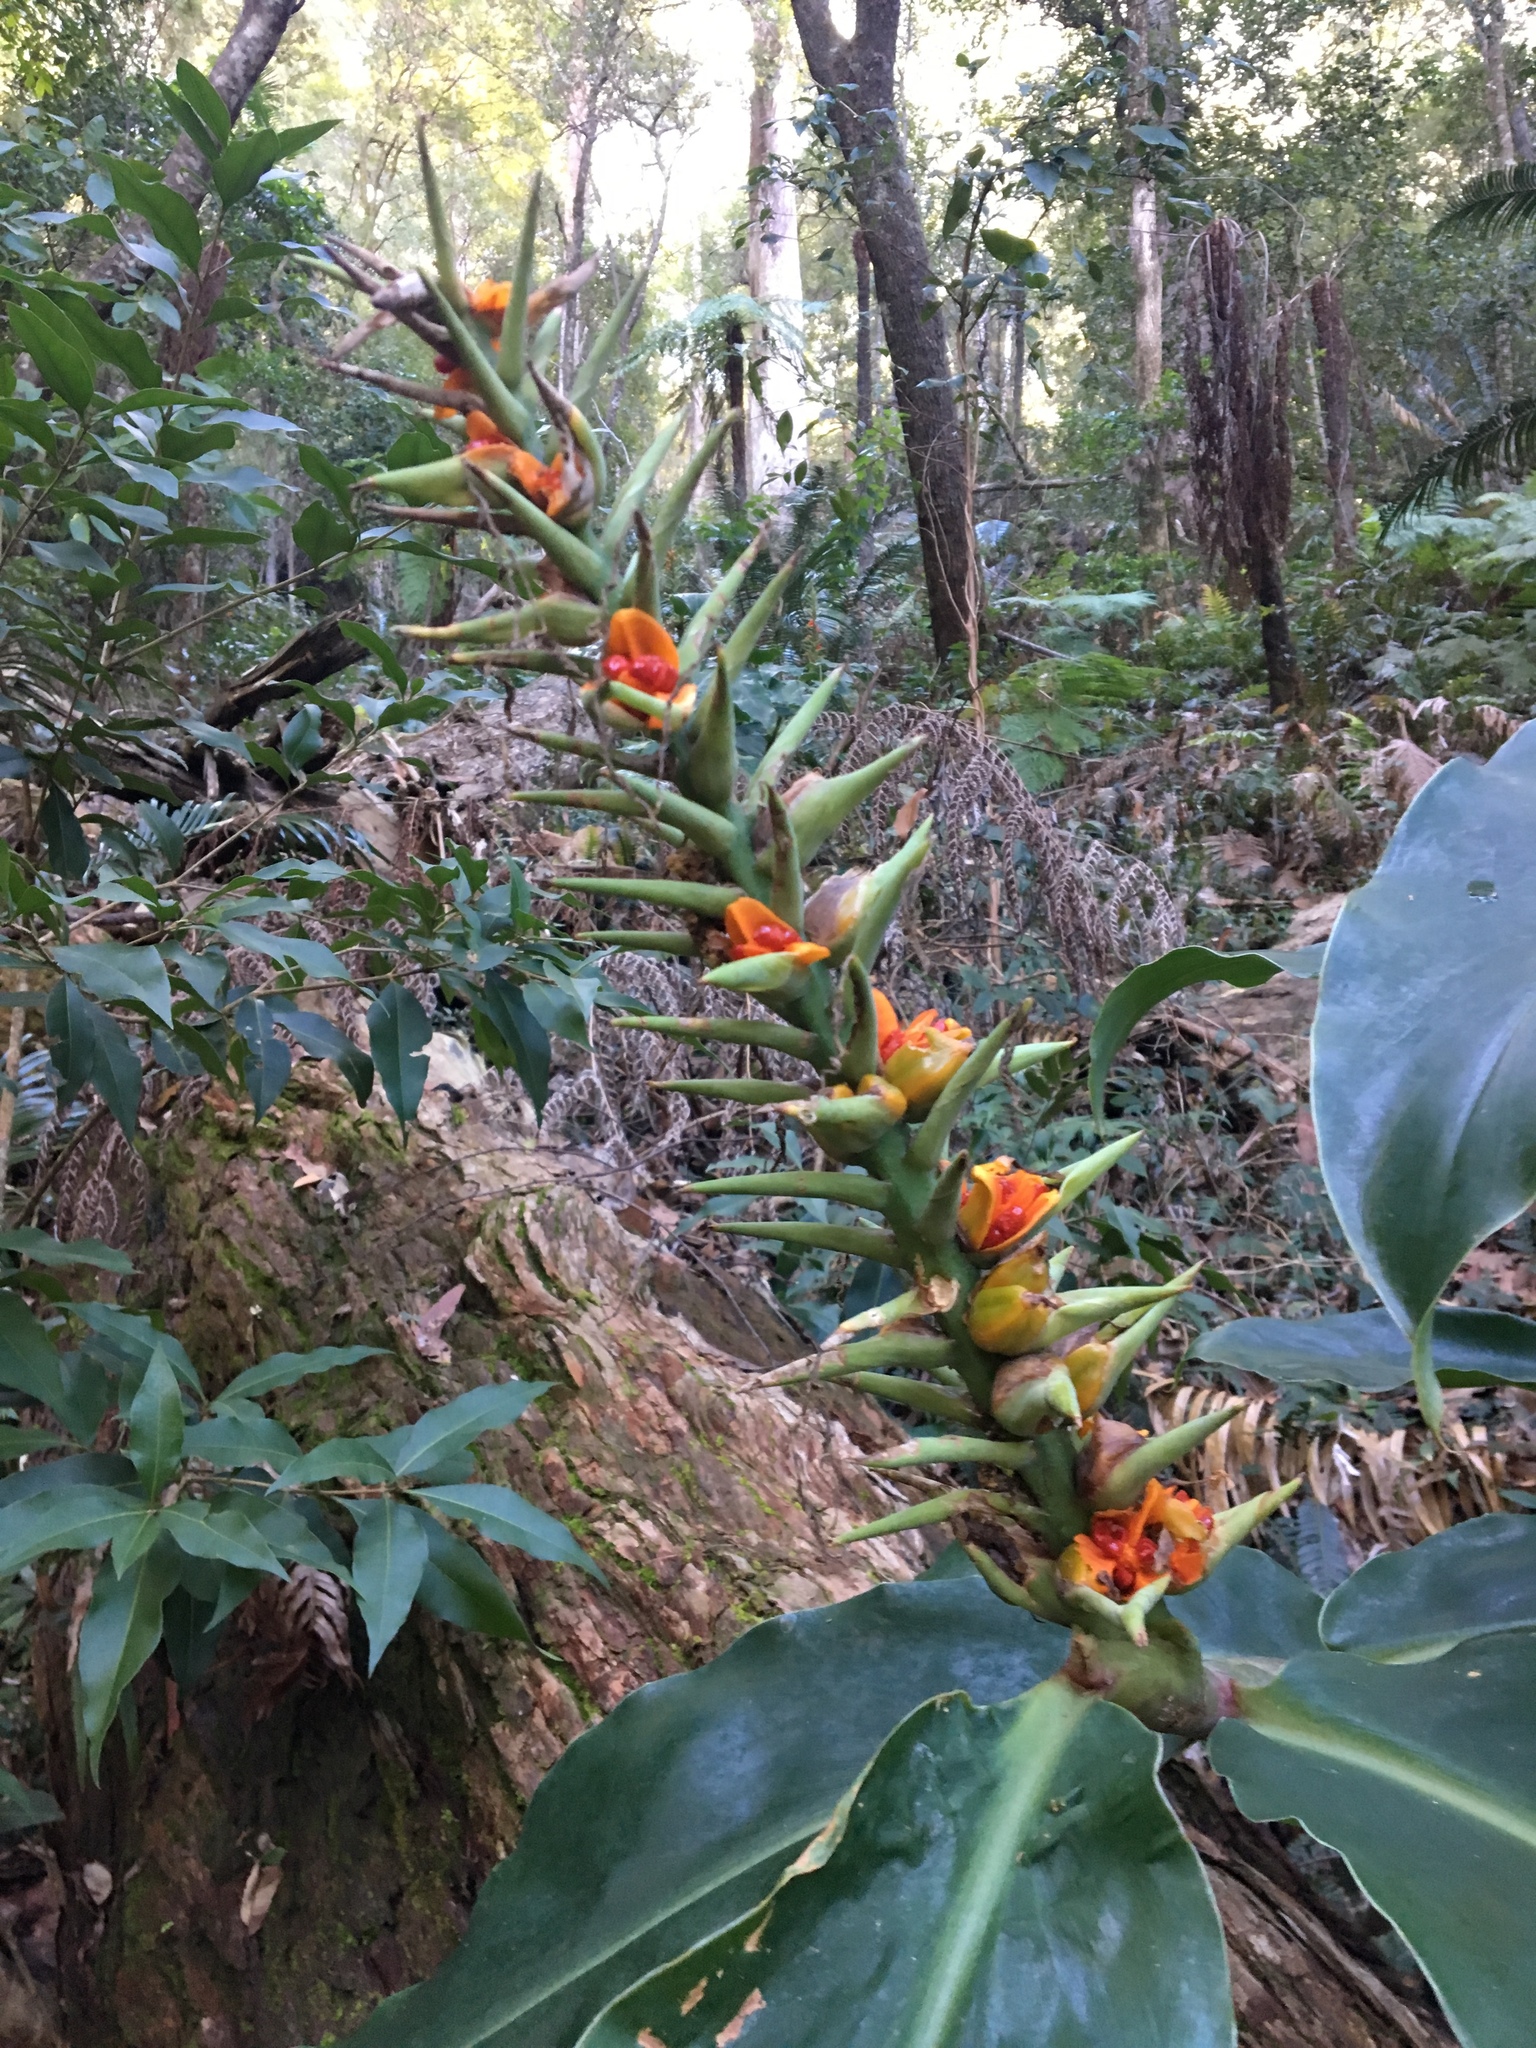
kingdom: Plantae
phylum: Tracheophyta
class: Liliopsida
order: Zingiberales
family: Zingiberaceae
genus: Hedychium
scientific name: Hedychium gardnerianum
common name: Himalayan ginger
